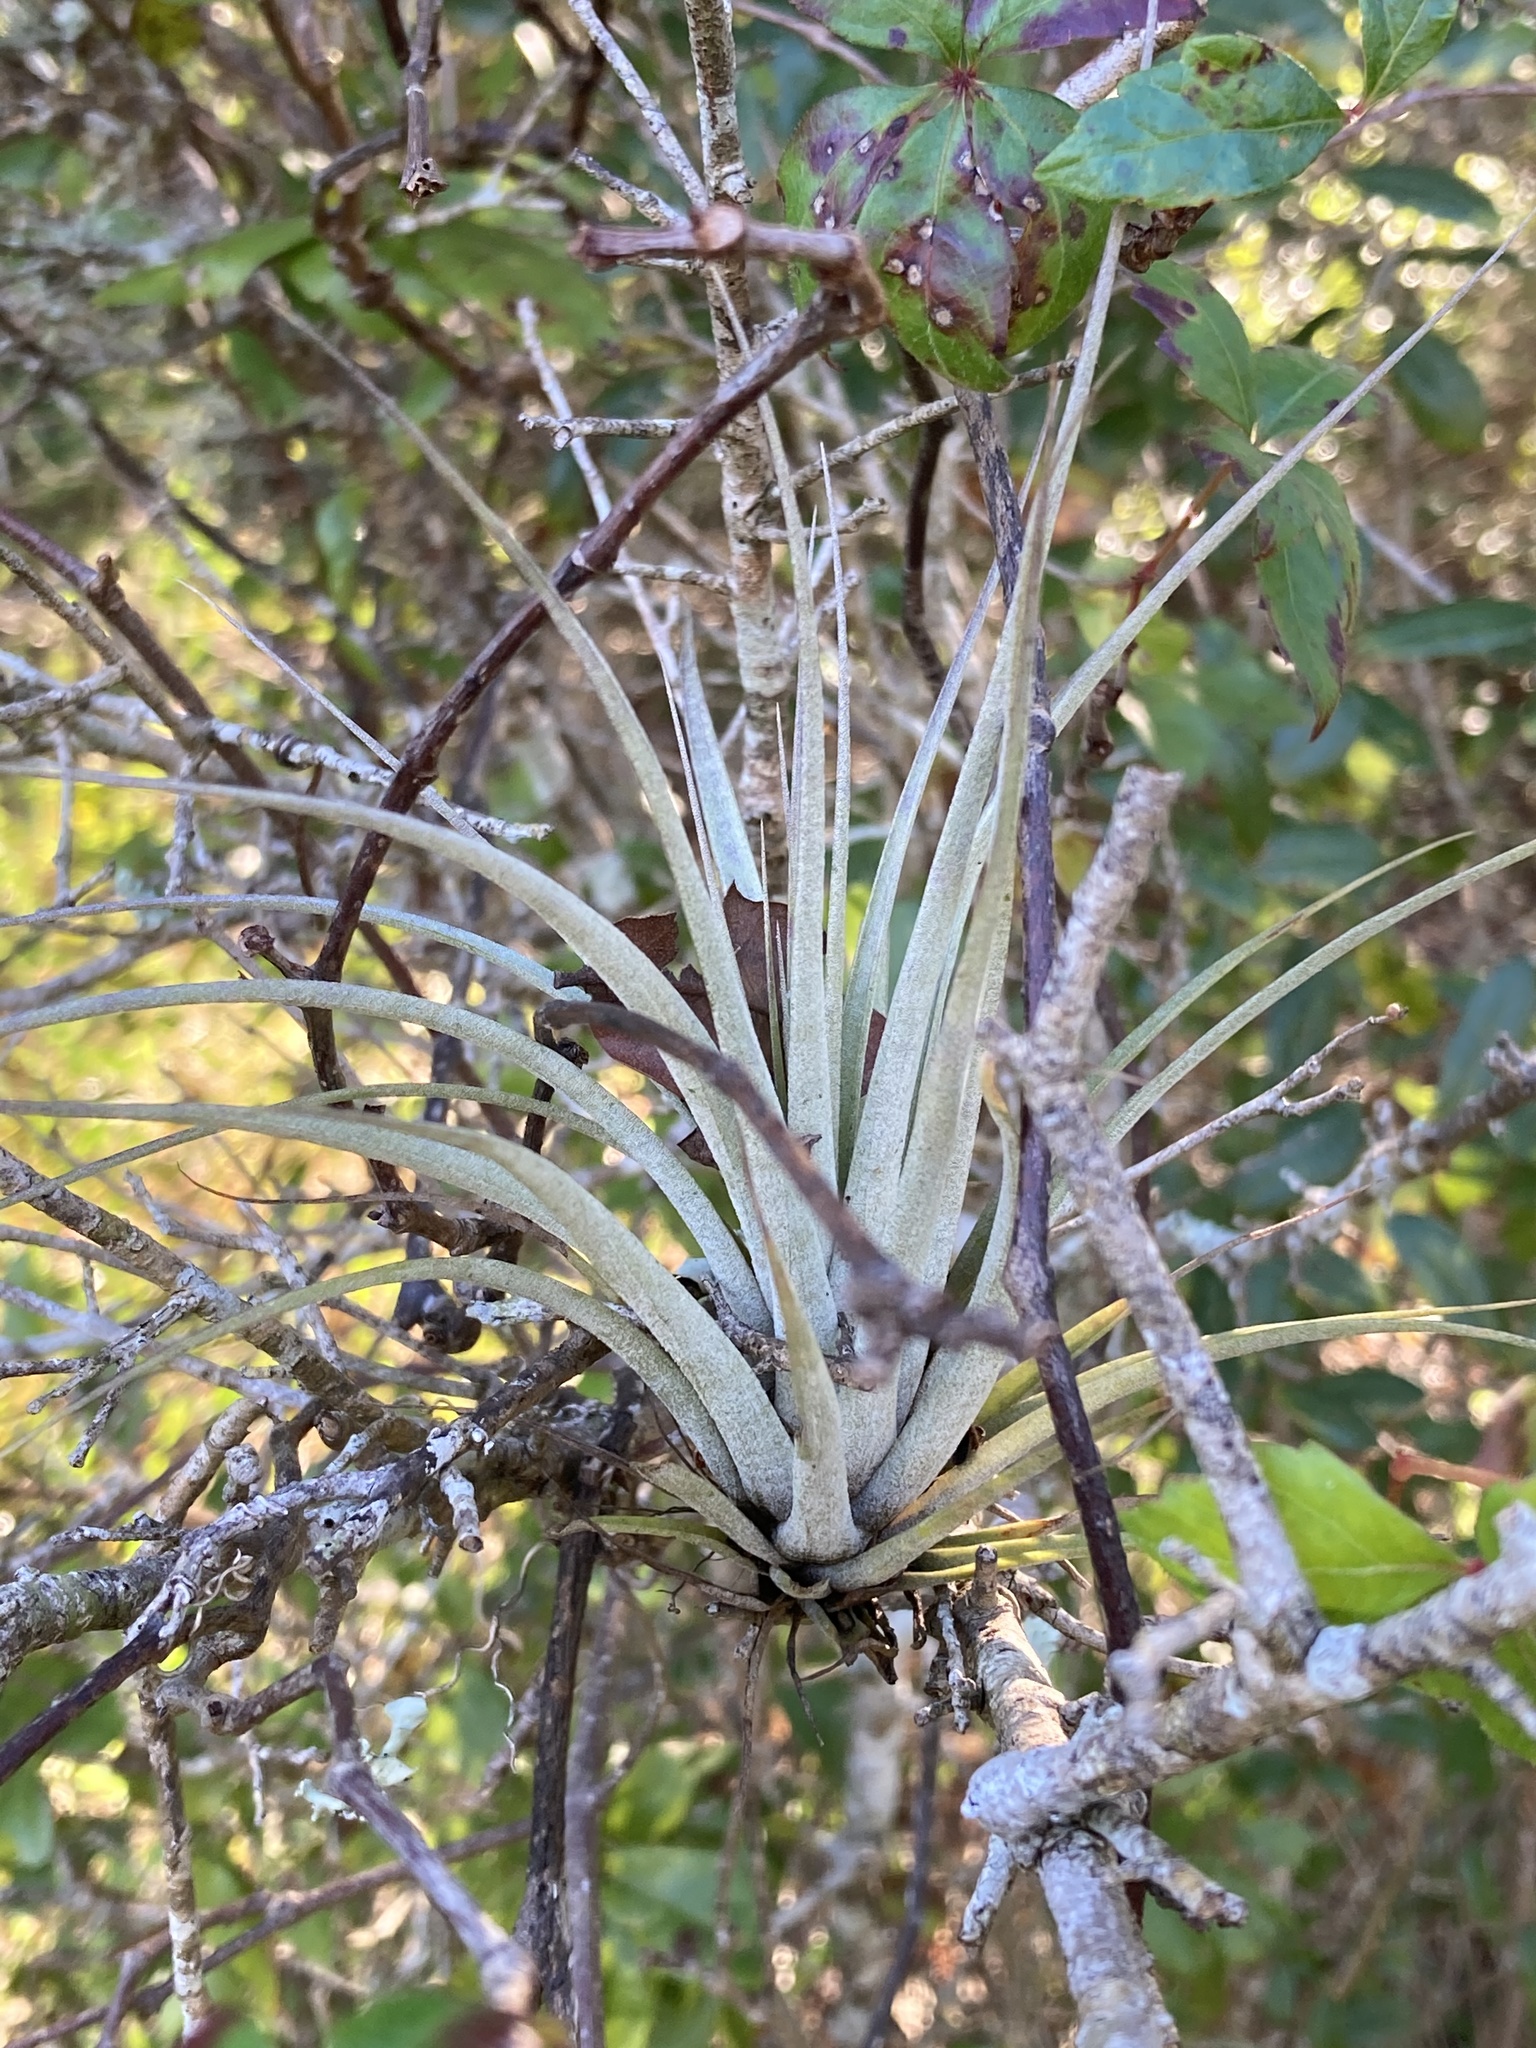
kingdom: Plantae
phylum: Tracheophyta
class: Liliopsida
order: Poales
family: Bromeliaceae
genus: Tillandsia
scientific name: Tillandsia fasciculata
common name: Giant airplant
